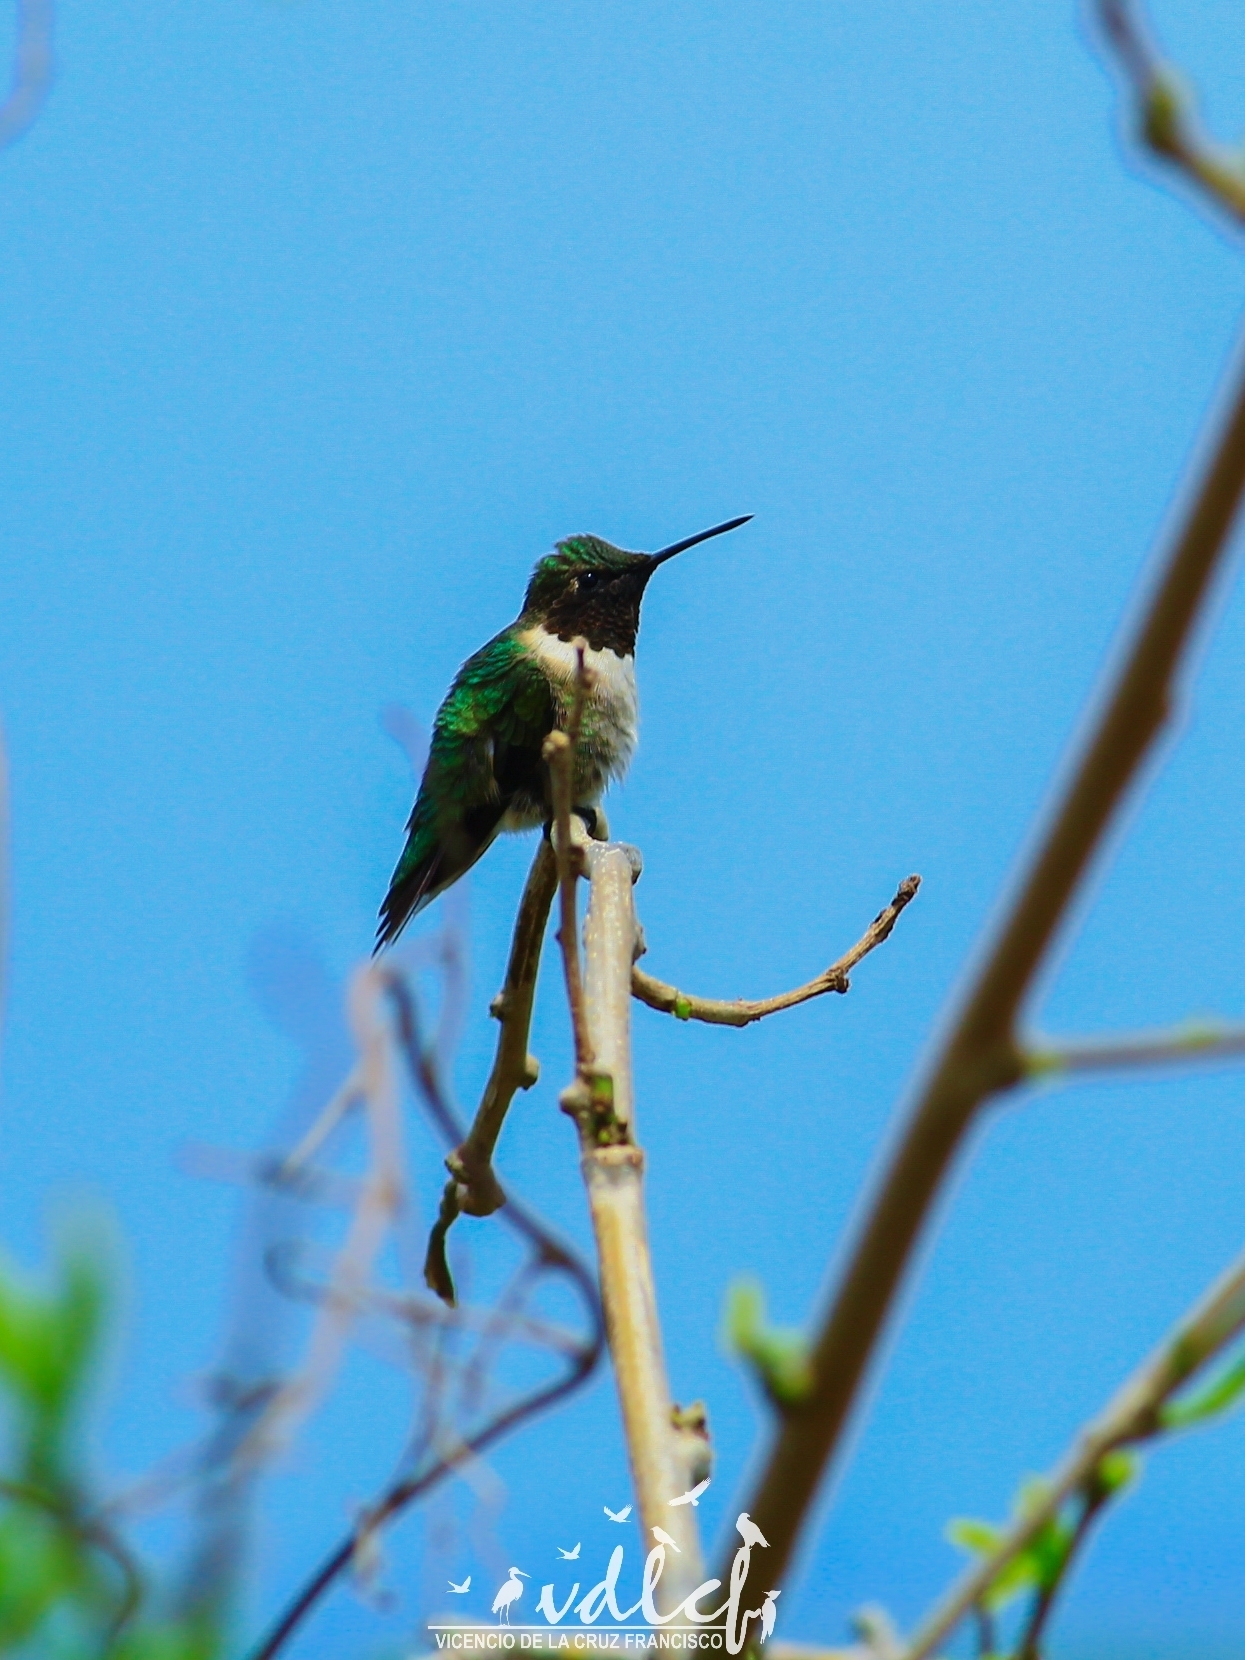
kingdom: Animalia
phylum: Chordata
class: Aves
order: Apodiformes
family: Trochilidae
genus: Archilochus
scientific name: Archilochus colubris
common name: Ruby-throated hummingbird
